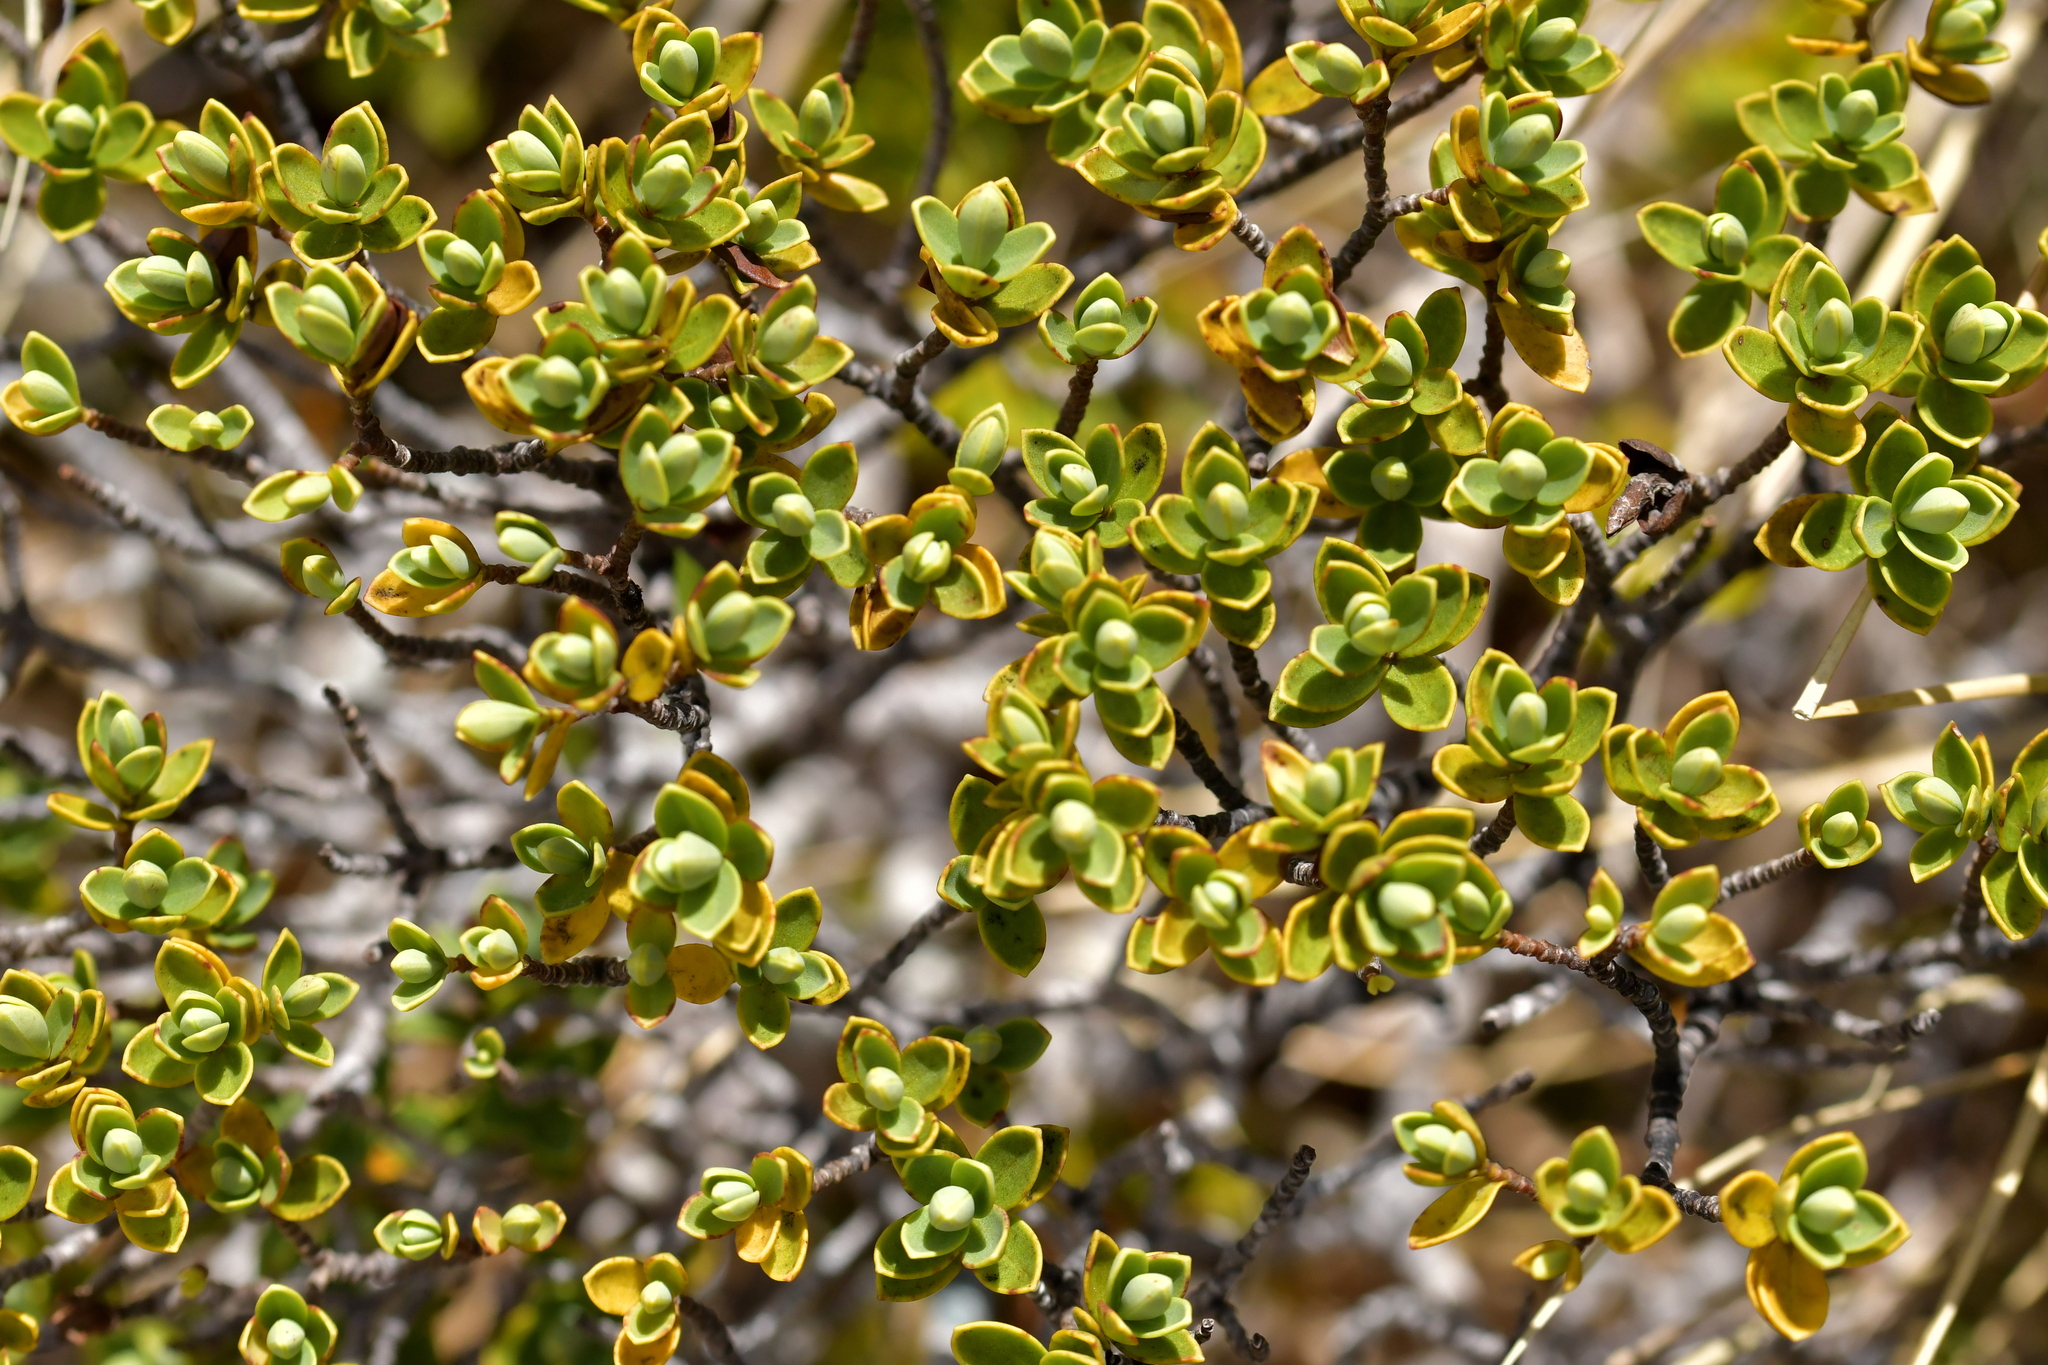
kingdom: Plantae
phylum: Tracheophyta
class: Magnoliopsida
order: Lamiales
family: Plantaginaceae
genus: Veronica
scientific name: Veronica topiaria
